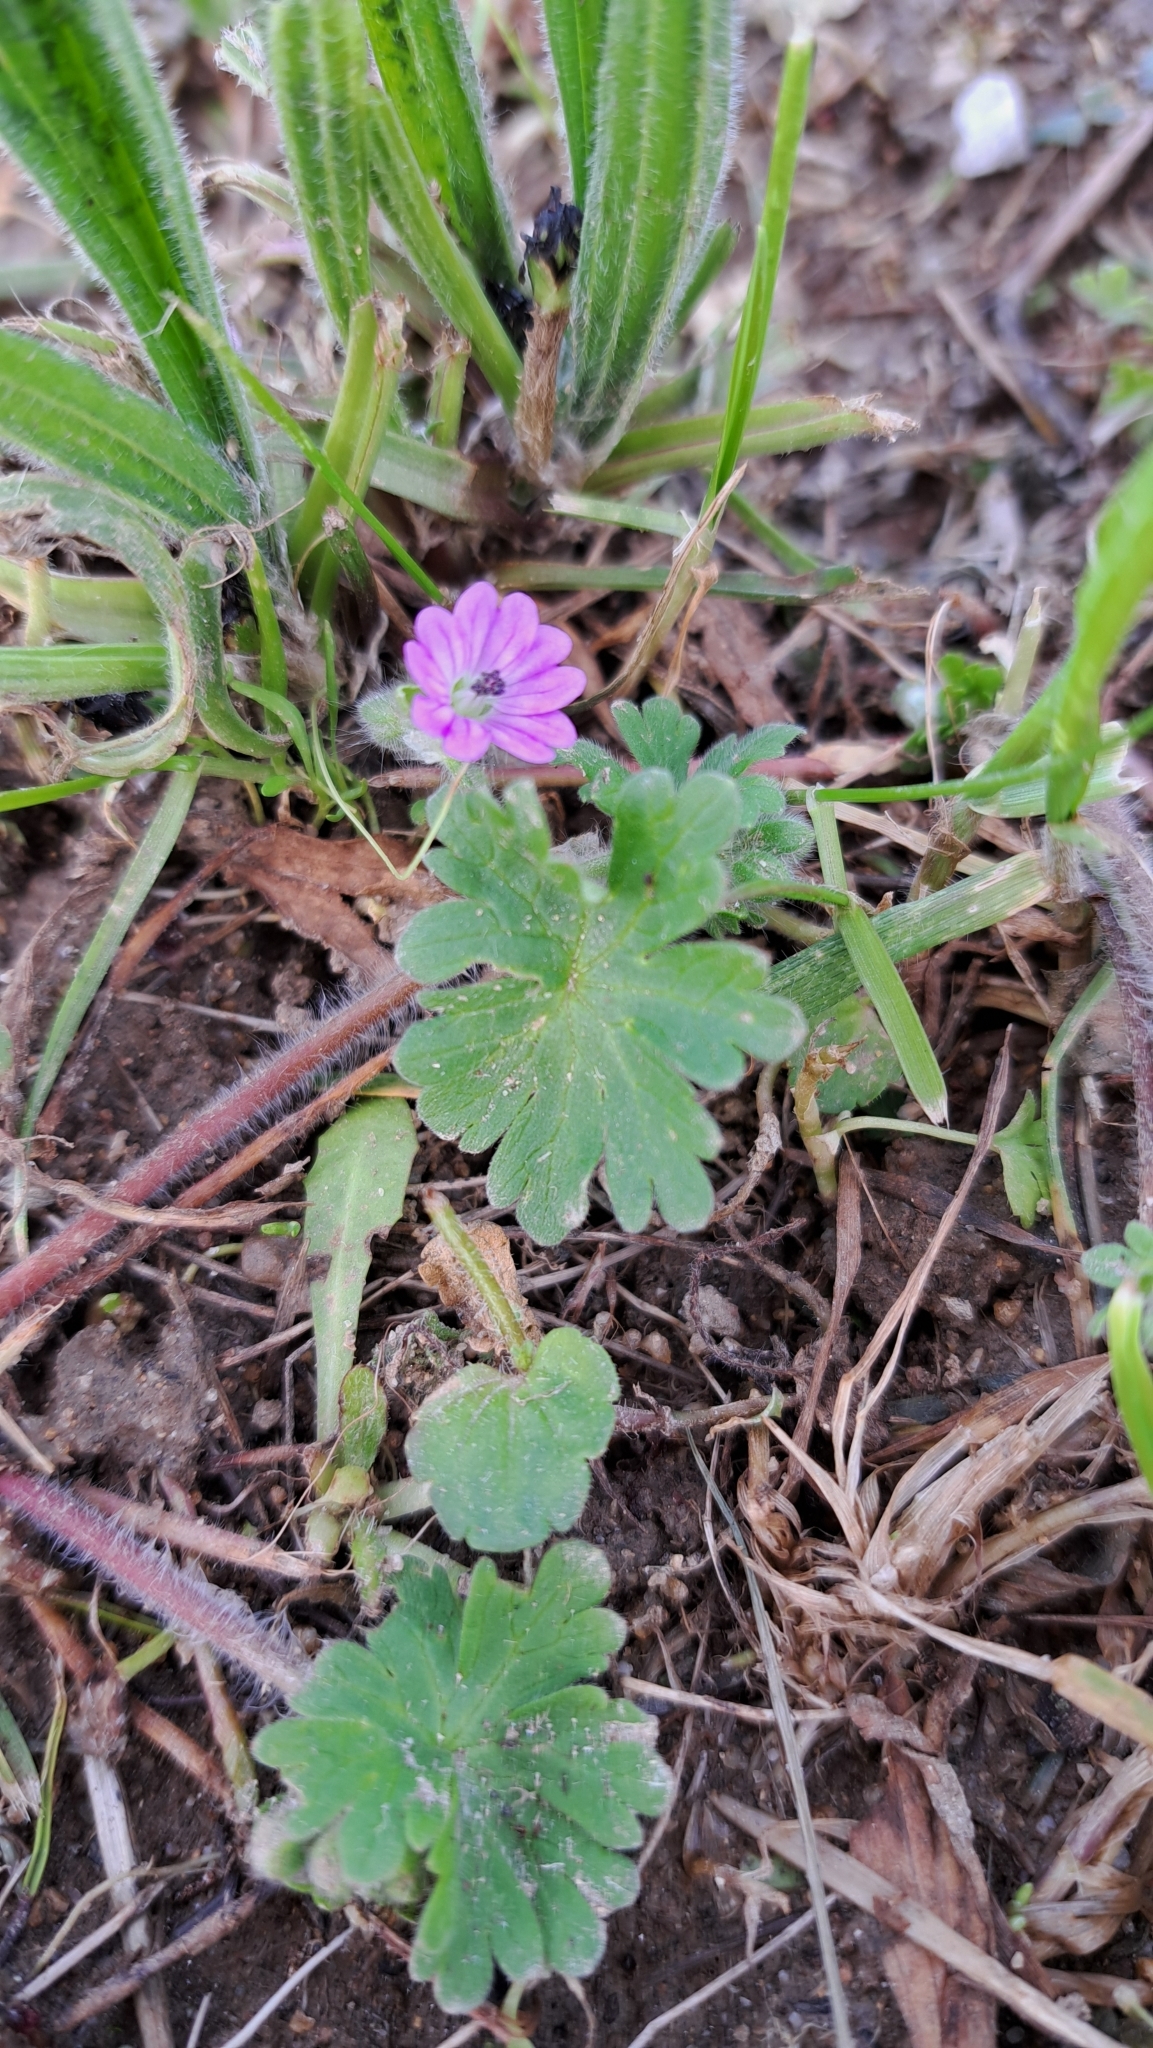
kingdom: Plantae
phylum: Tracheophyta
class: Magnoliopsida
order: Geraniales
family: Geraniaceae
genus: Geranium
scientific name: Geranium molle
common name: Dove's-foot crane's-bill
